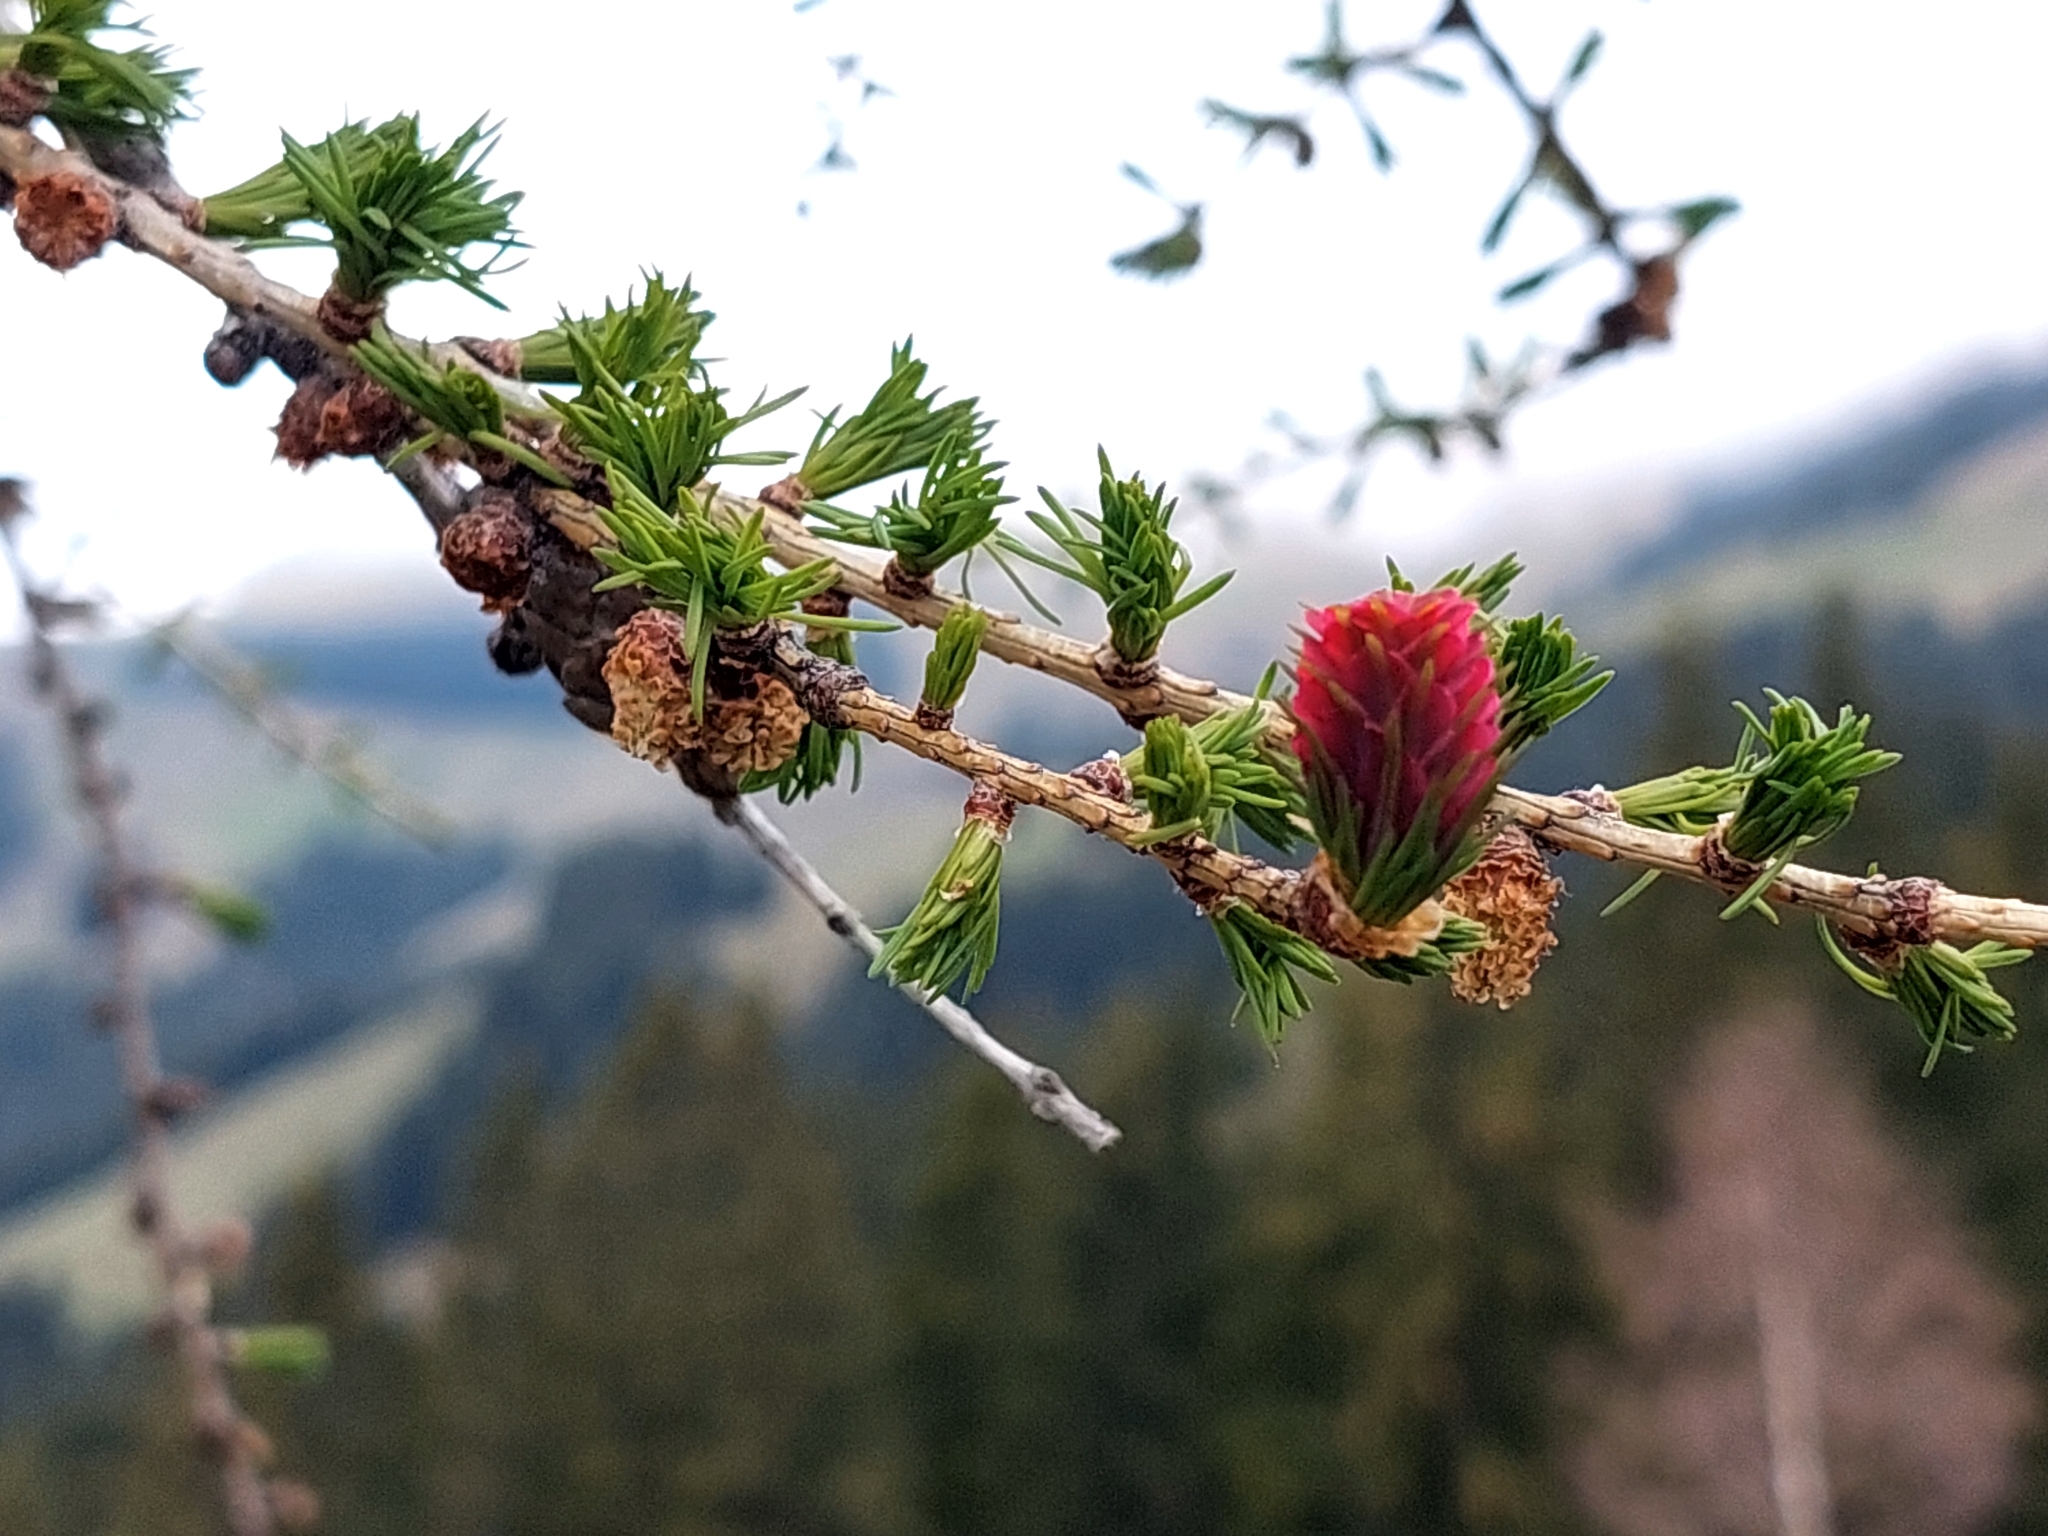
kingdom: Plantae
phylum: Tracheophyta
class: Pinopsida
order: Pinales
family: Pinaceae
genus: Larix
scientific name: Larix decidua
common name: European larch
